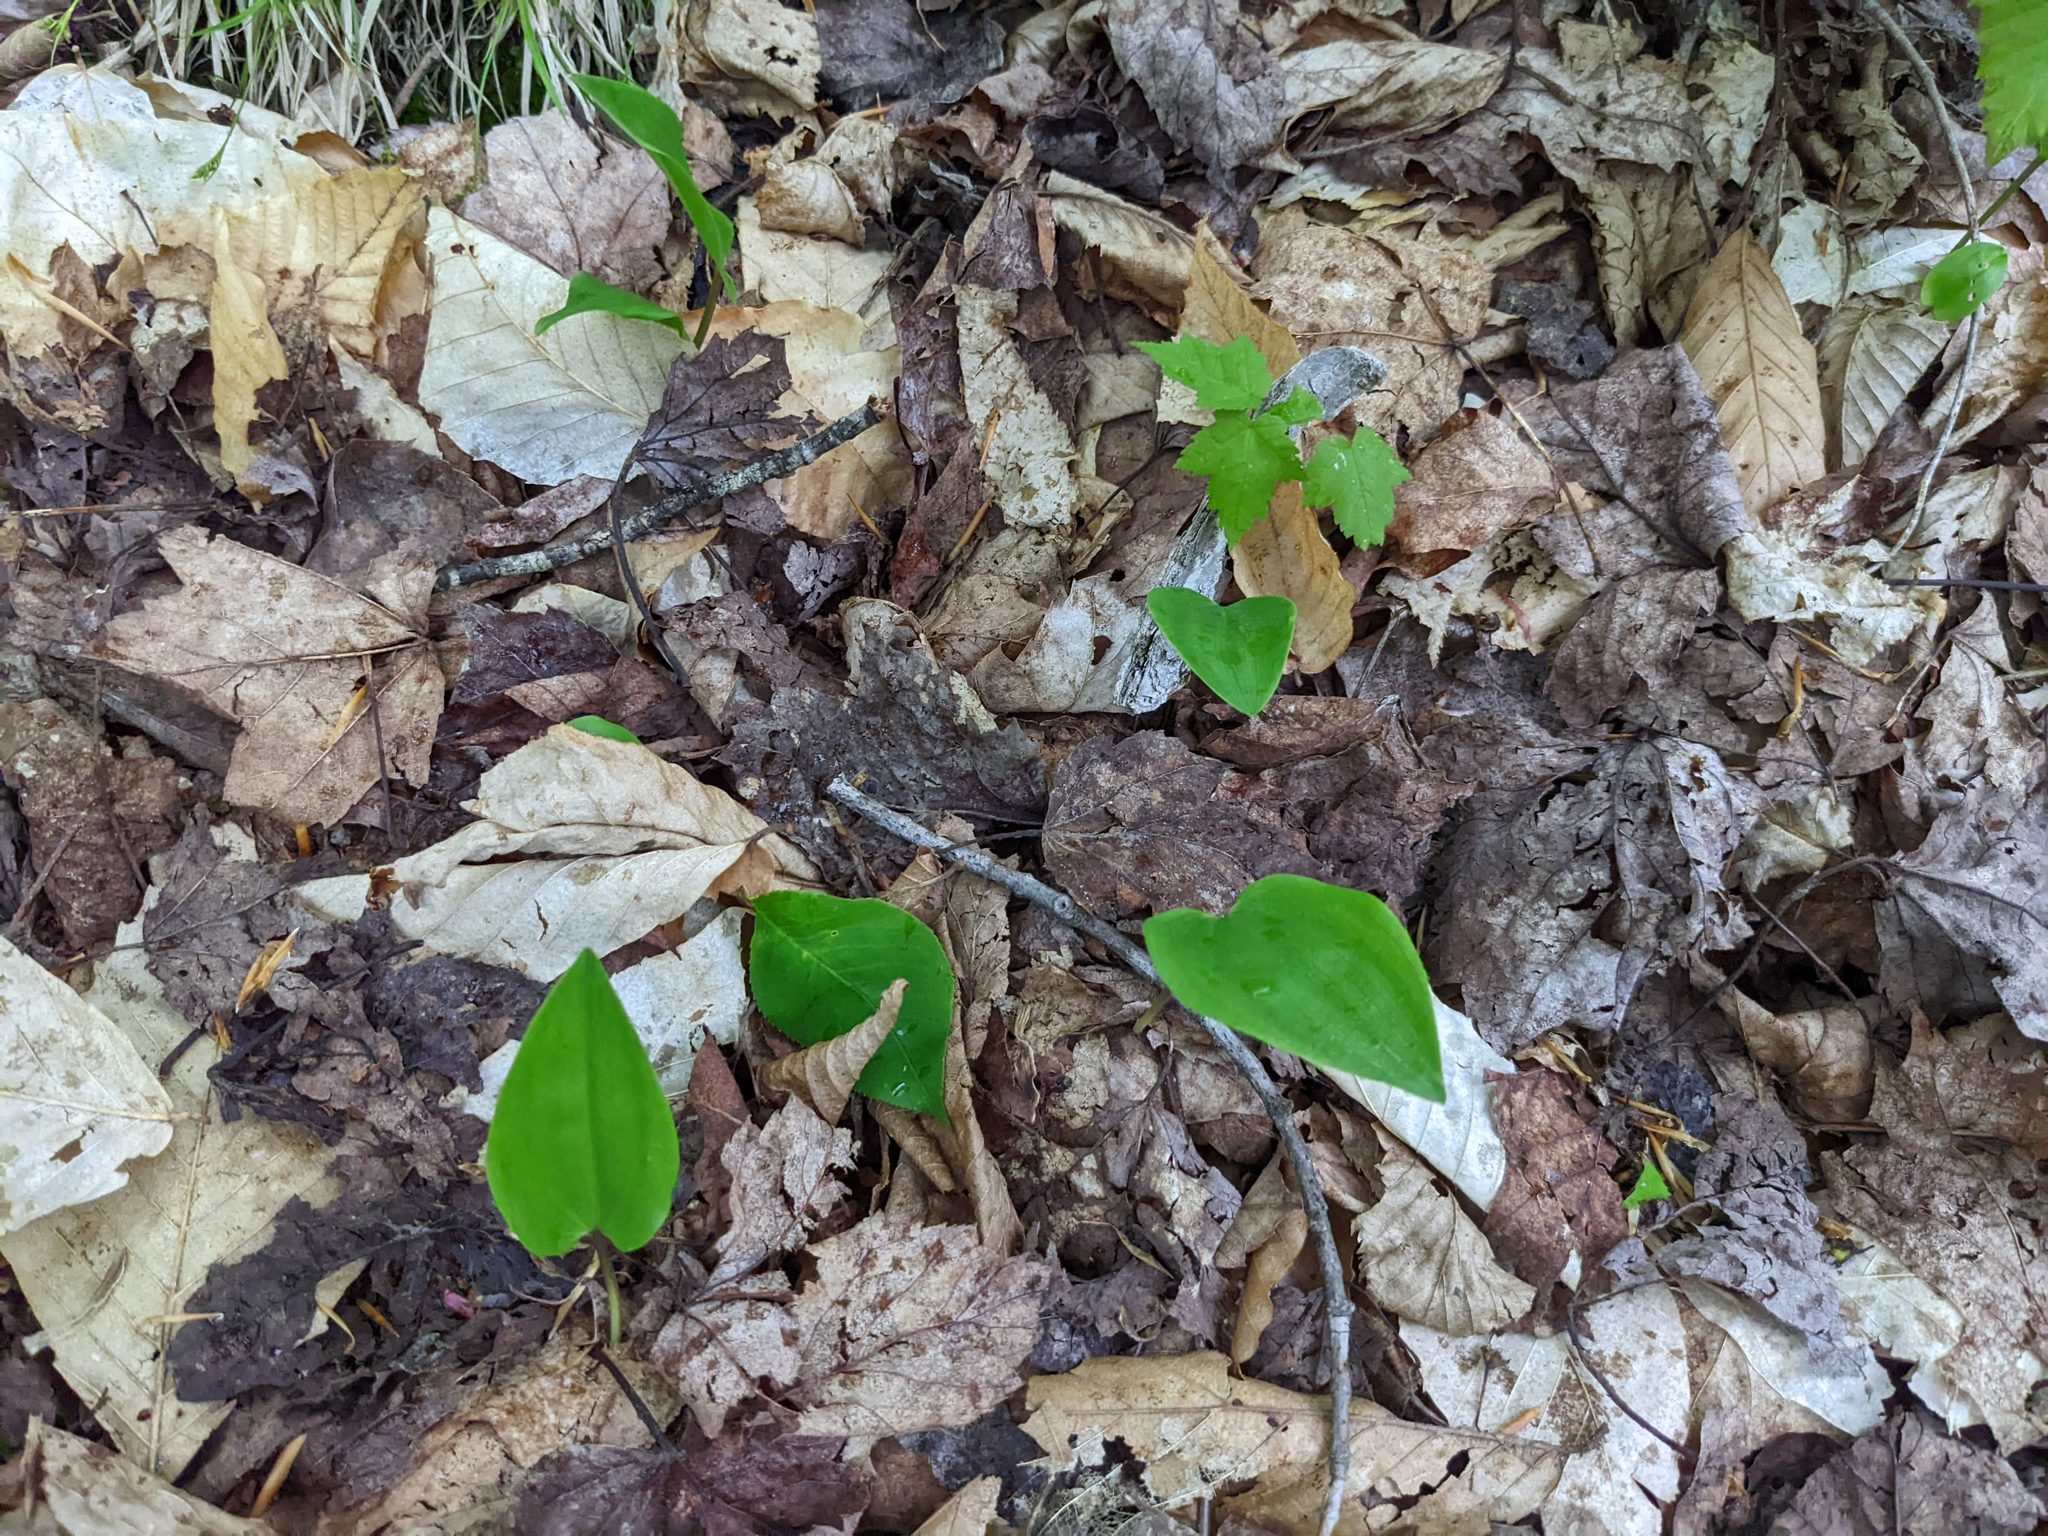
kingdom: Plantae
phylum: Tracheophyta
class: Liliopsida
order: Asparagales
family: Asparagaceae
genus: Maianthemum
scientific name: Maianthemum canadense
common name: False lily-of-the-valley
